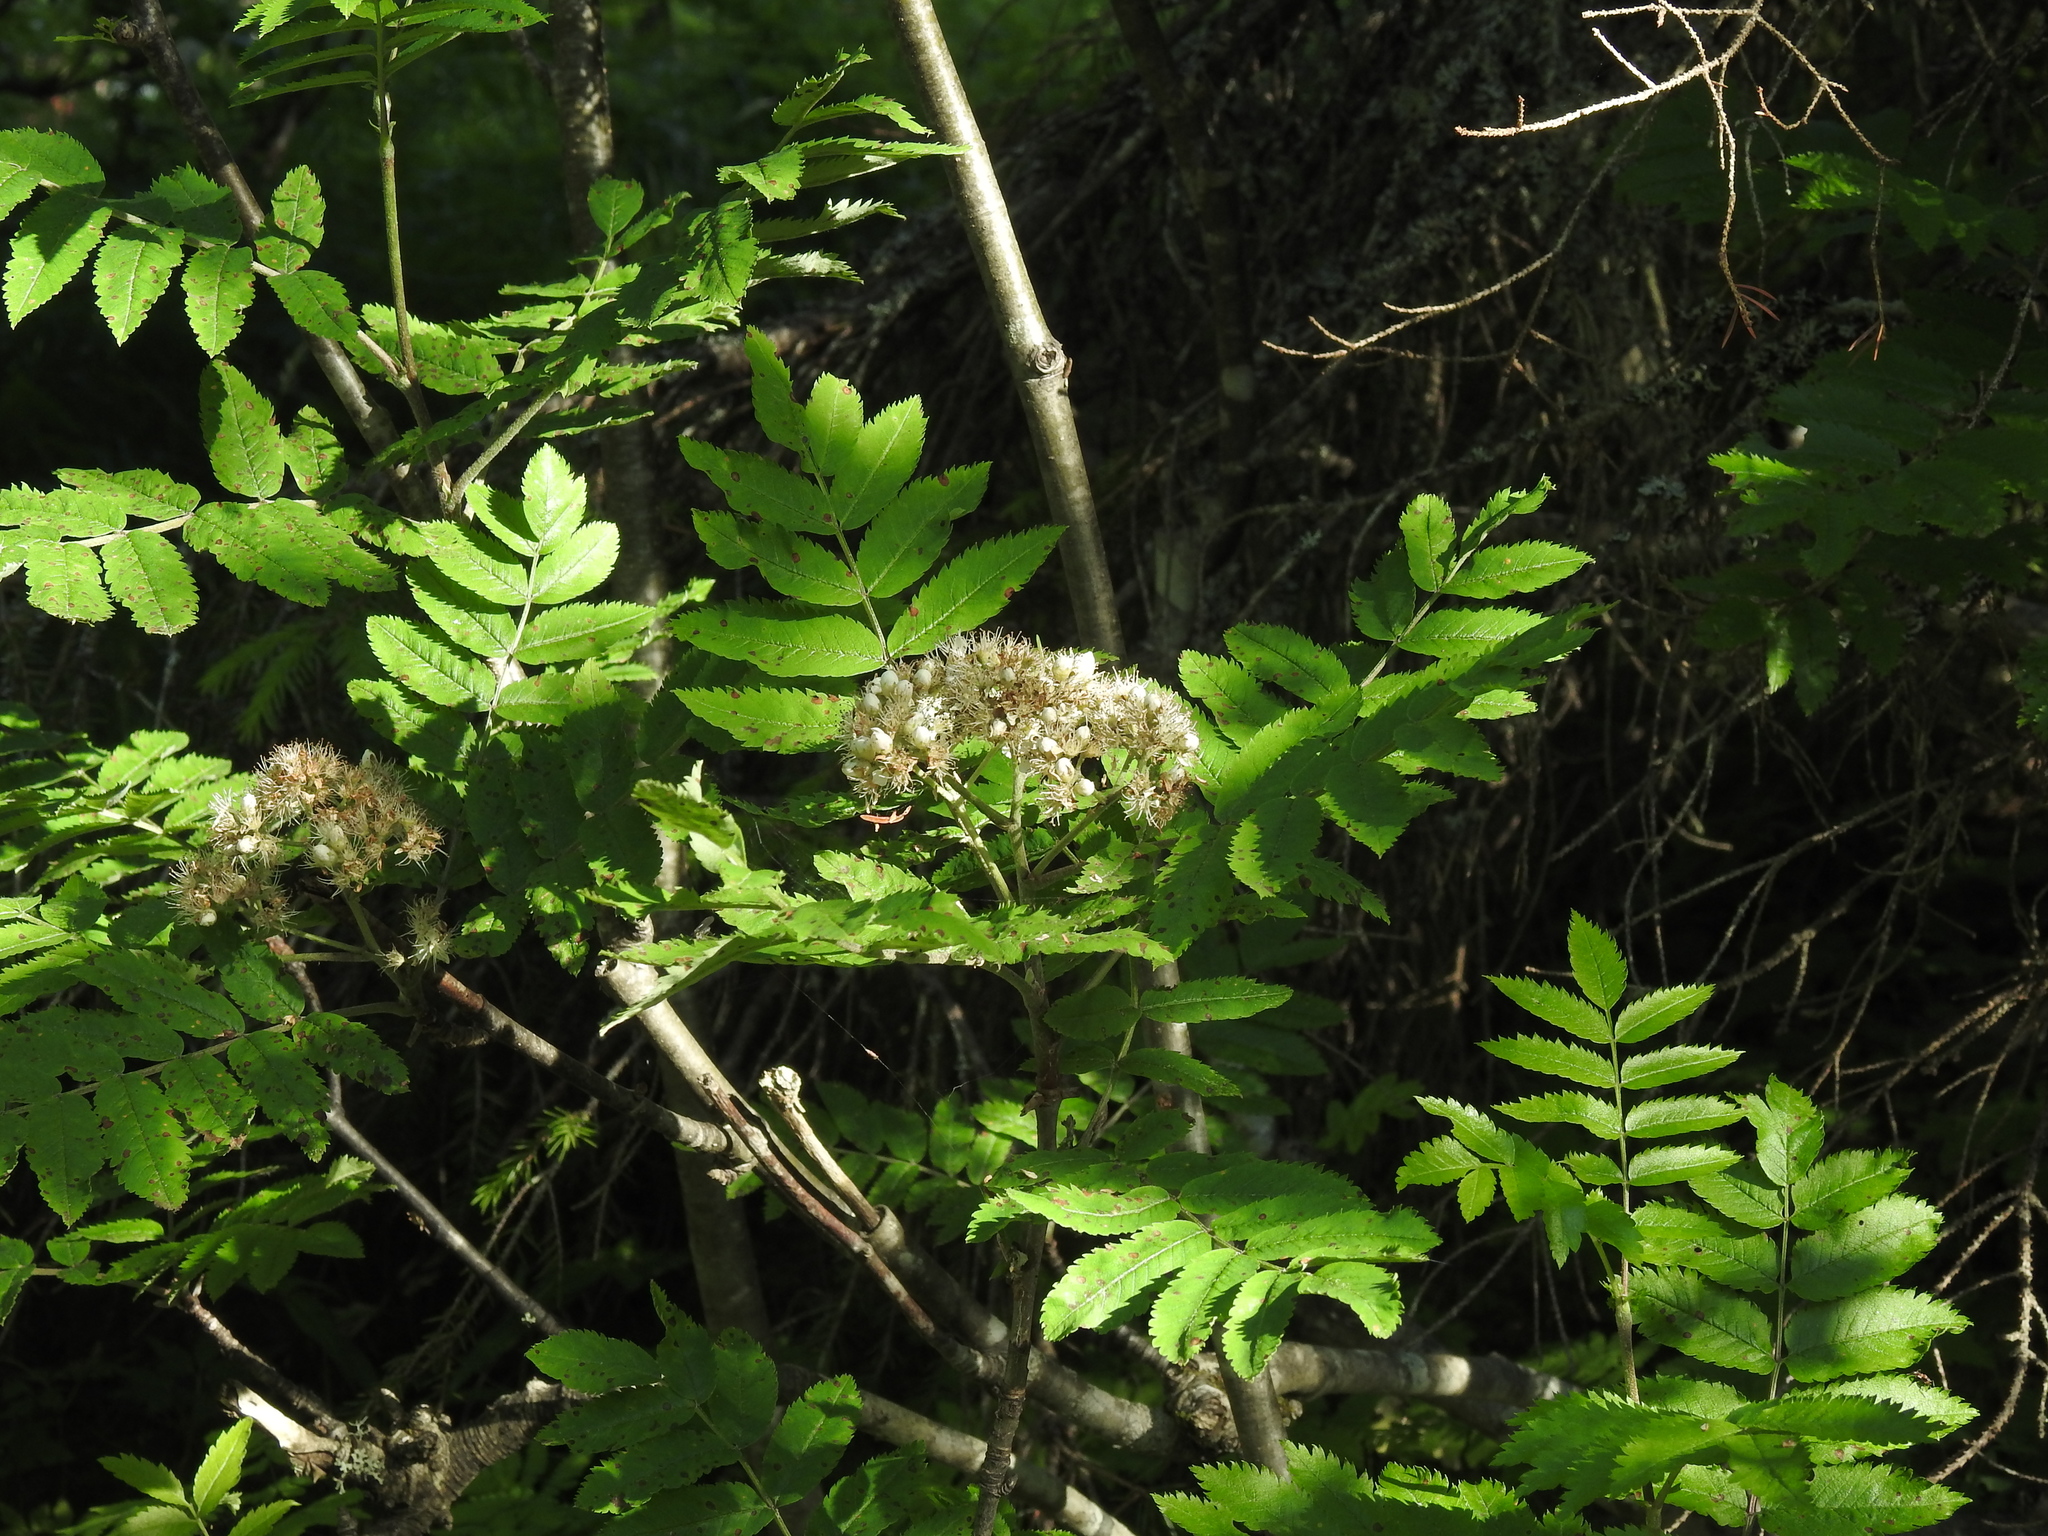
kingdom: Plantae
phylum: Tracheophyta
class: Magnoliopsida
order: Rosales
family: Rosaceae
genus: Sorbus
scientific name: Sorbus aucuparia
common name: Rowan
